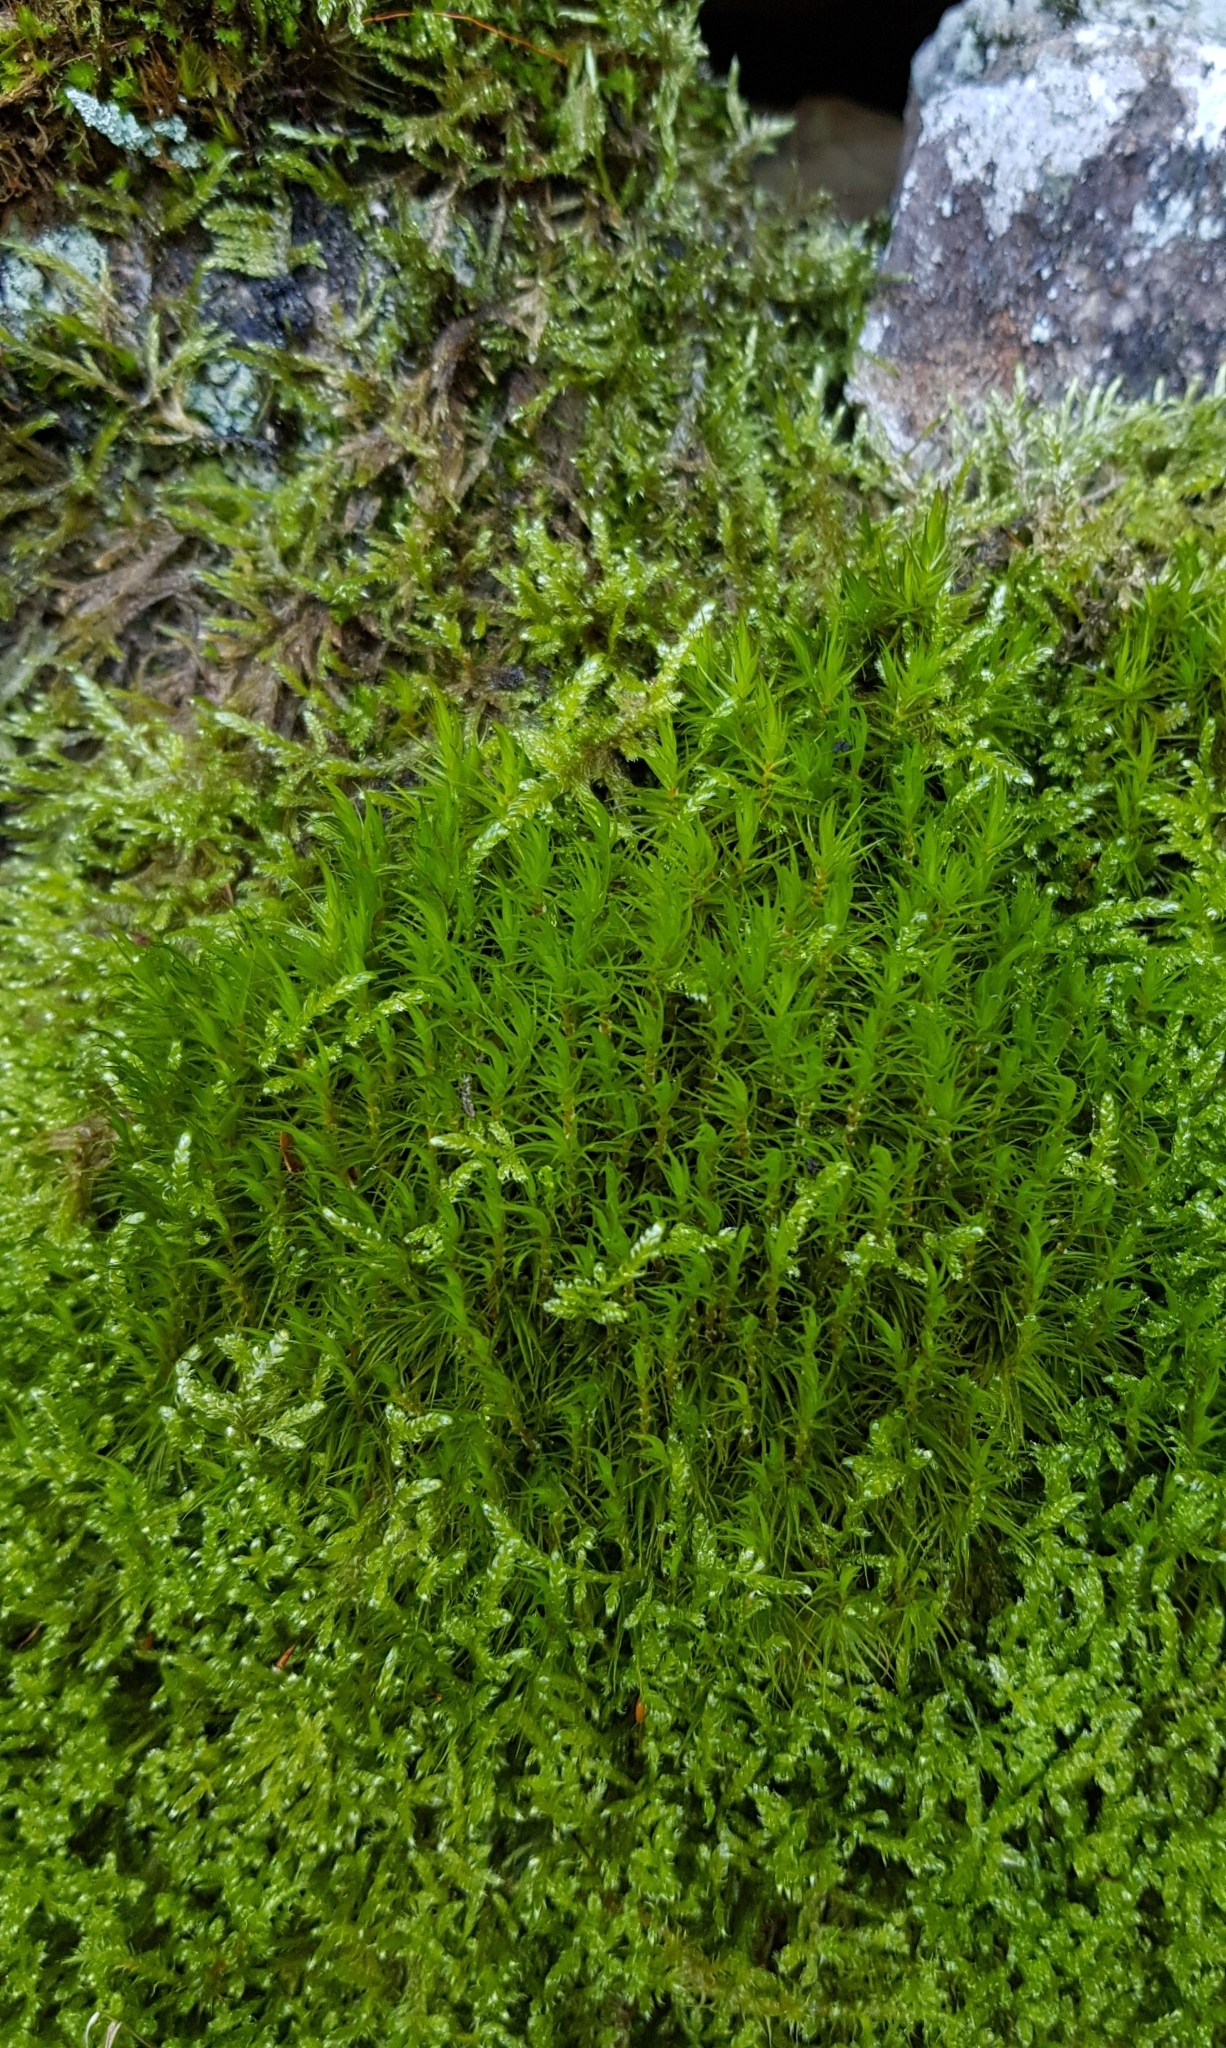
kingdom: Plantae
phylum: Bryophyta
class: Bryopsida
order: Dicranales
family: Dicranaceae
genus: Dicranum
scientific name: Dicranum scoparium
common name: Broom fork-moss
